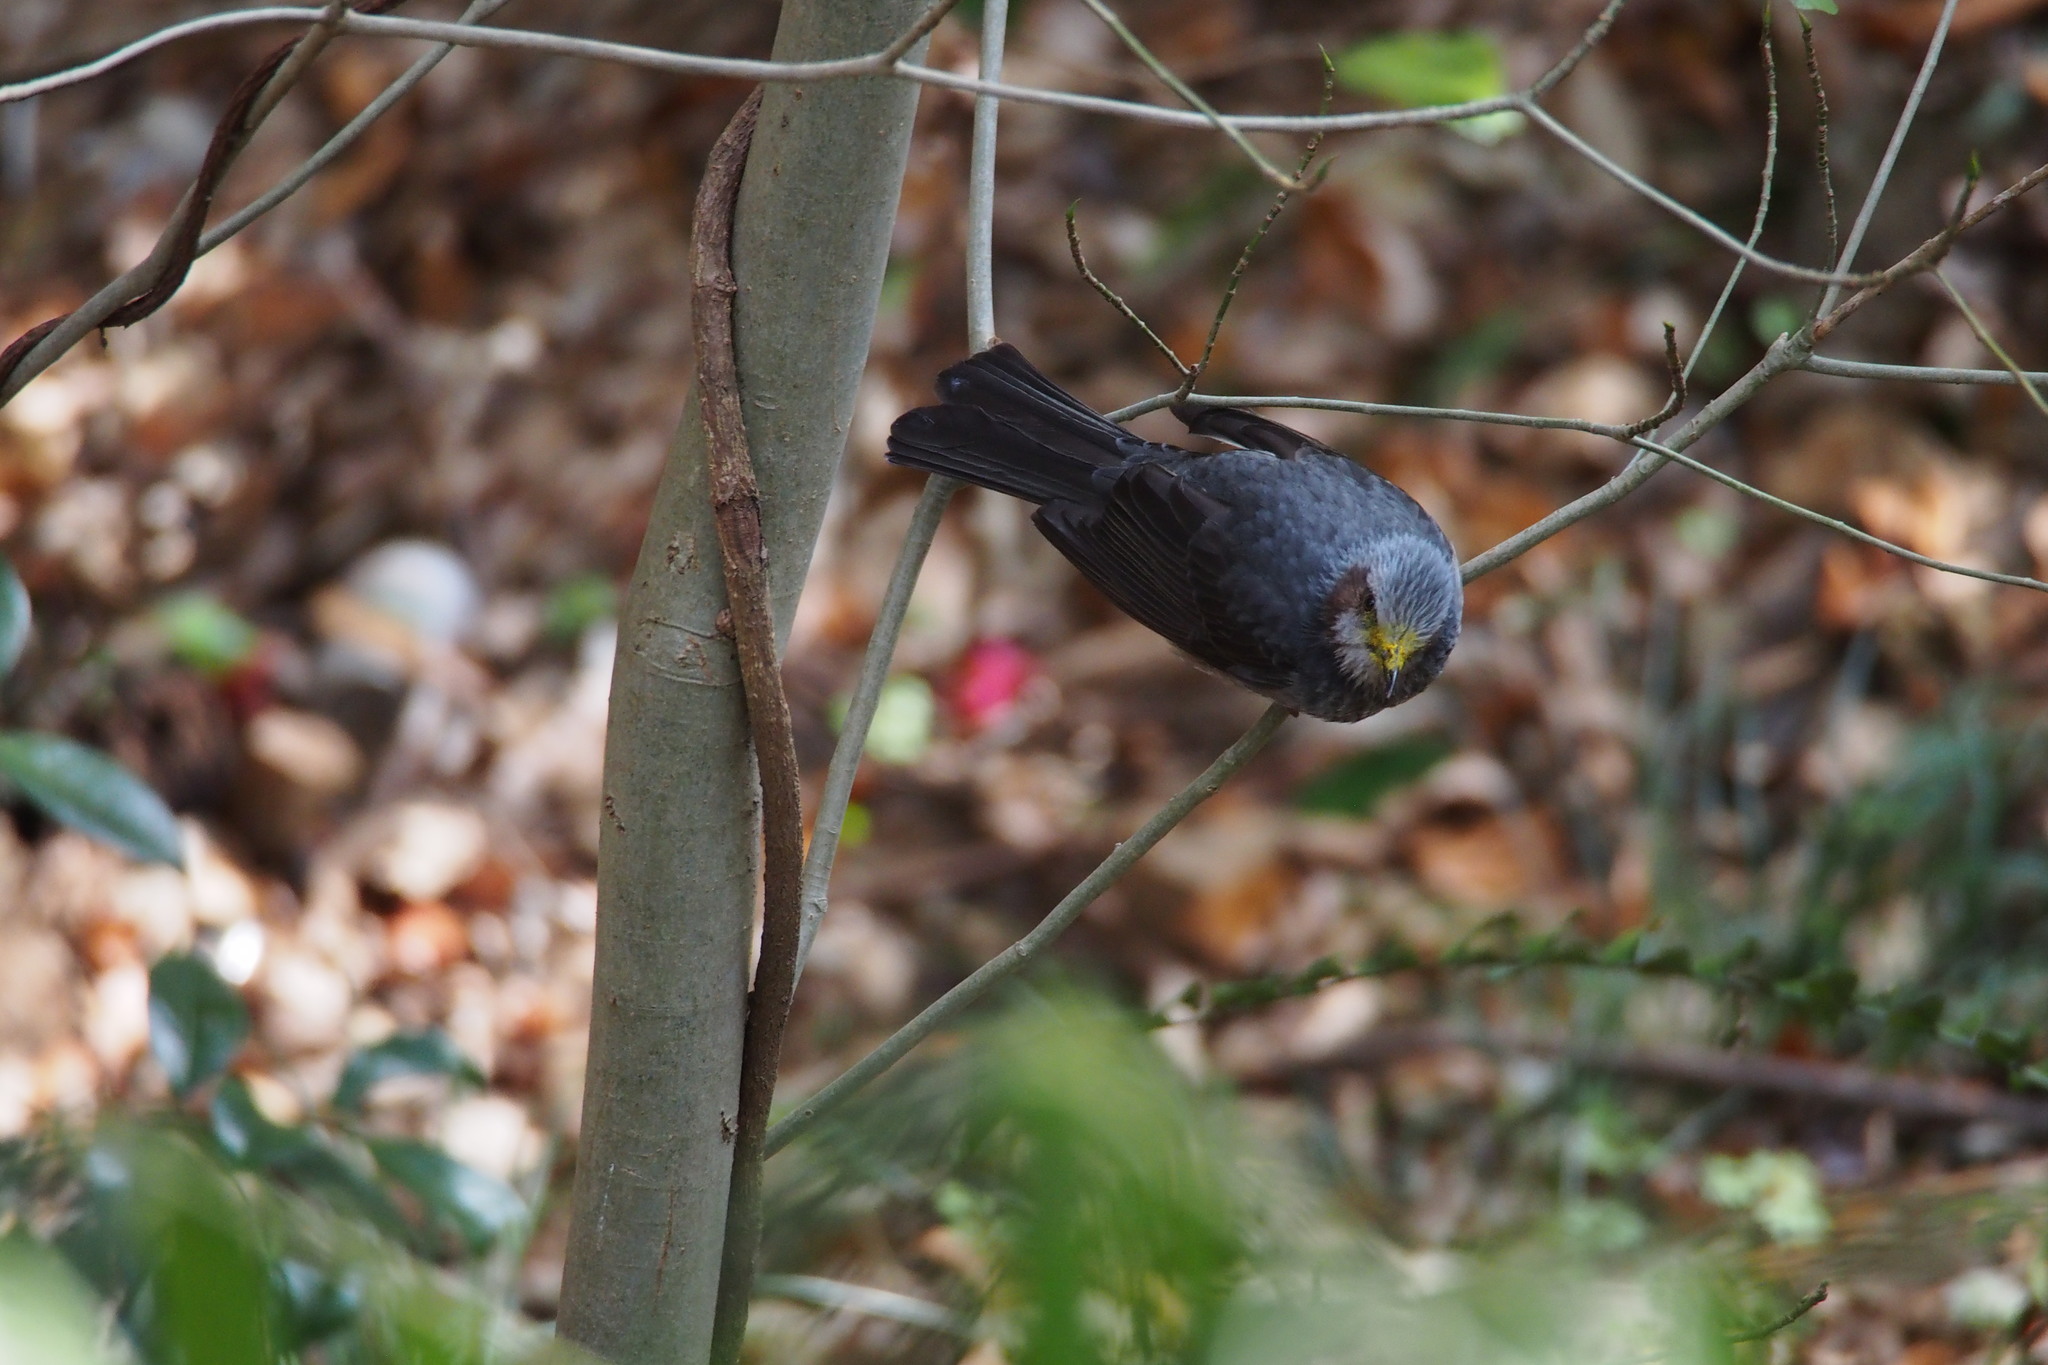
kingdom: Animalia
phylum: Chordata
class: Aves
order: Passeriformes
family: Pycnonotidae
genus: Hypsipetes
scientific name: Hypsipetes amaurotis
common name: Brown-eared bulbul
